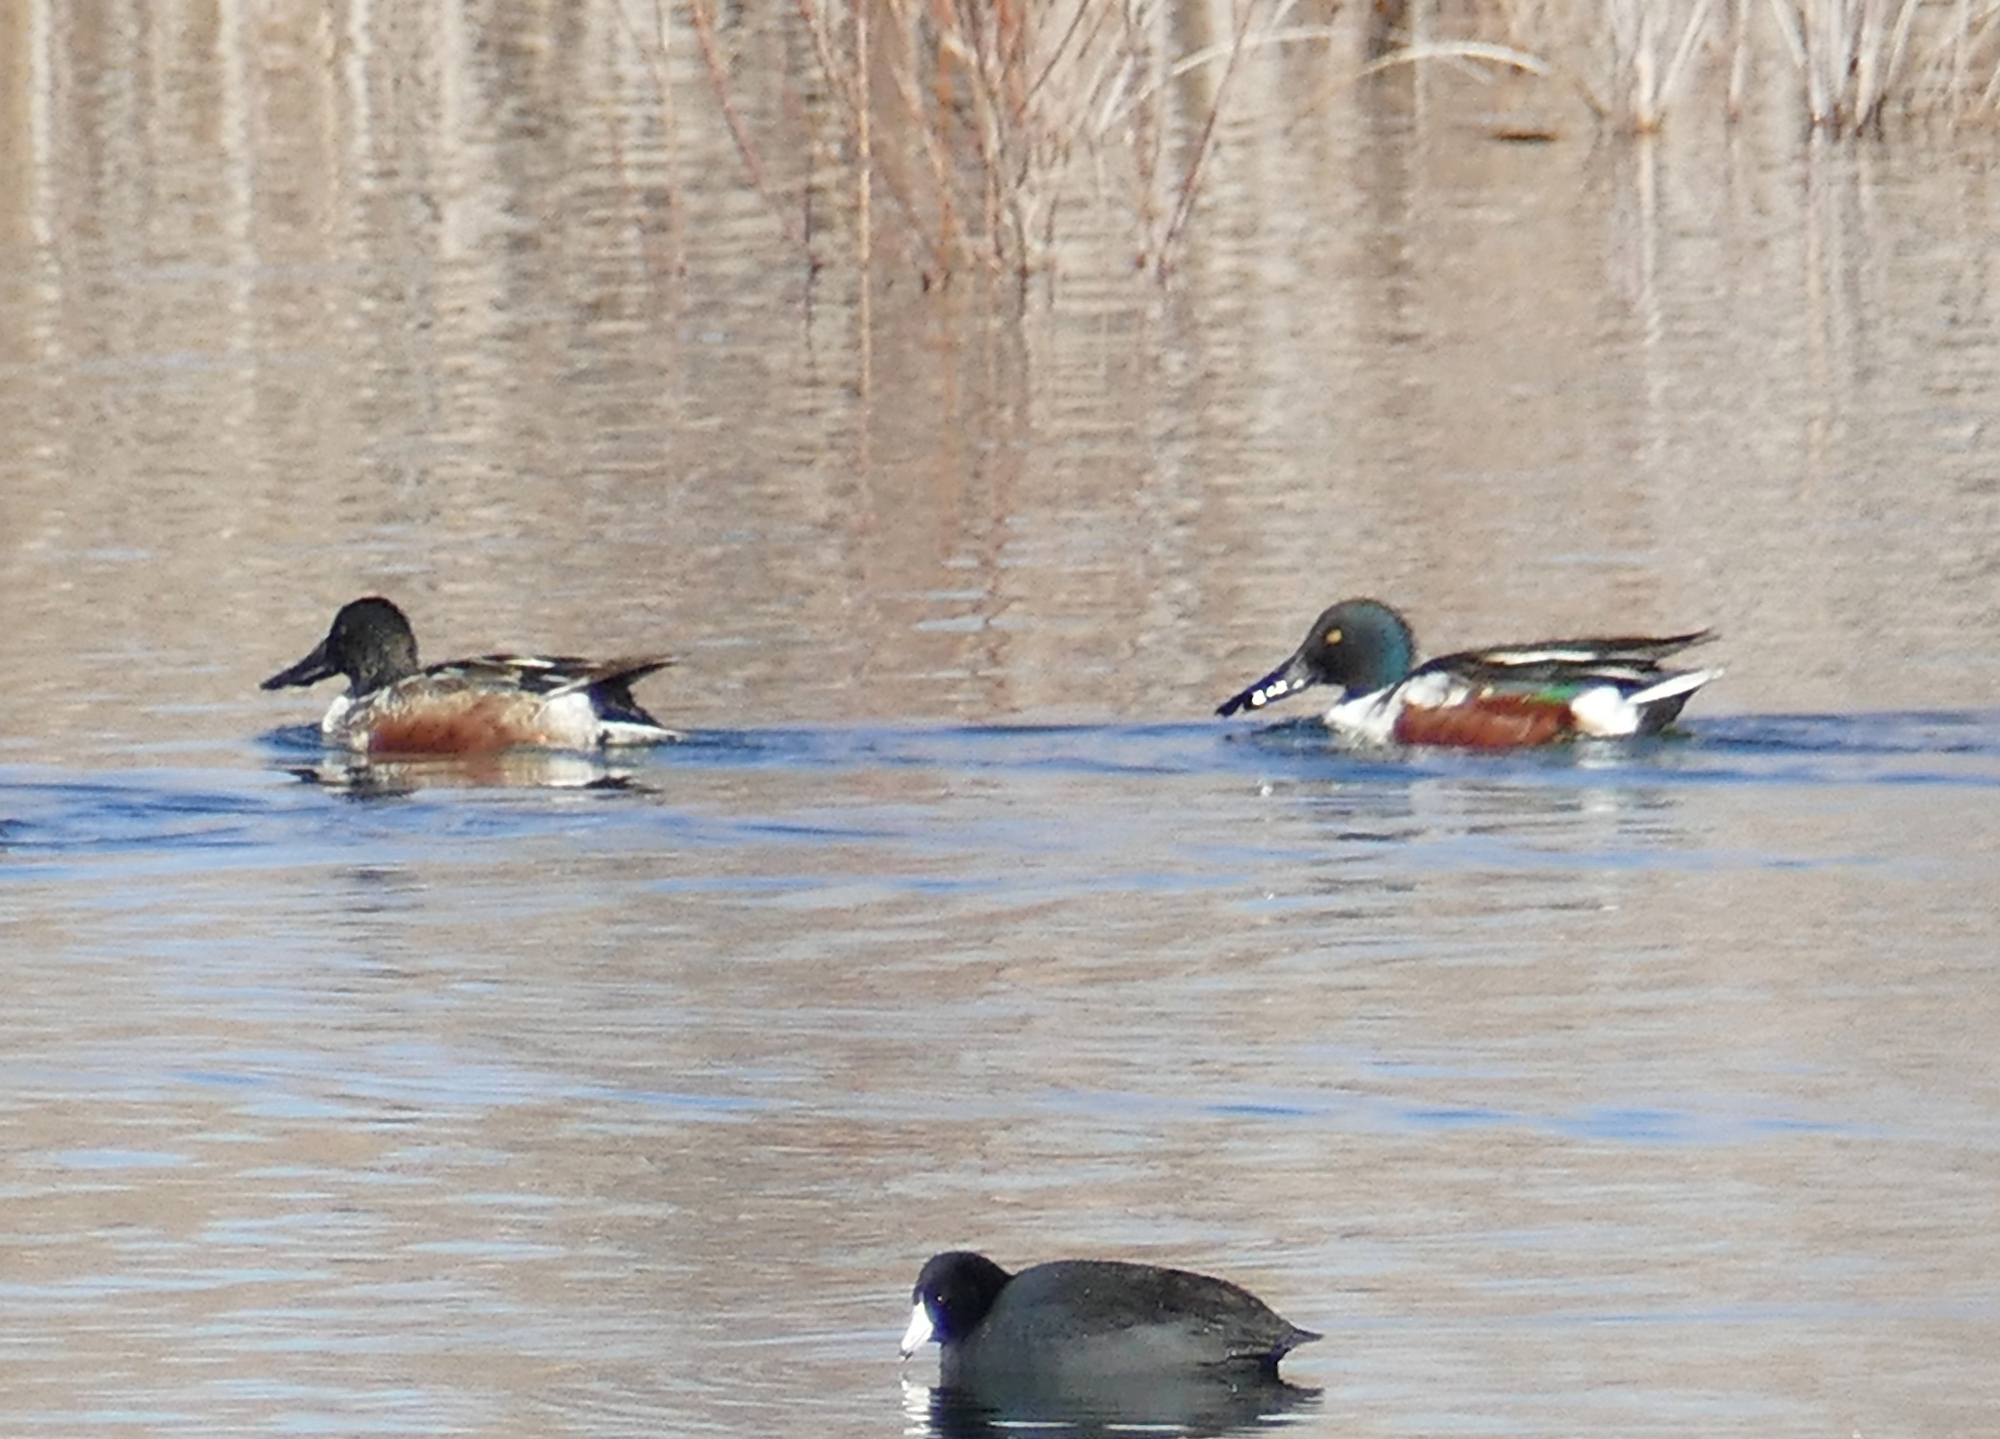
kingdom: Animalia
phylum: Chordata
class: Aves
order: Anseriformes
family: Anatidae
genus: Spatula
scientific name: Spatula clypeata
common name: Northern shoveler
